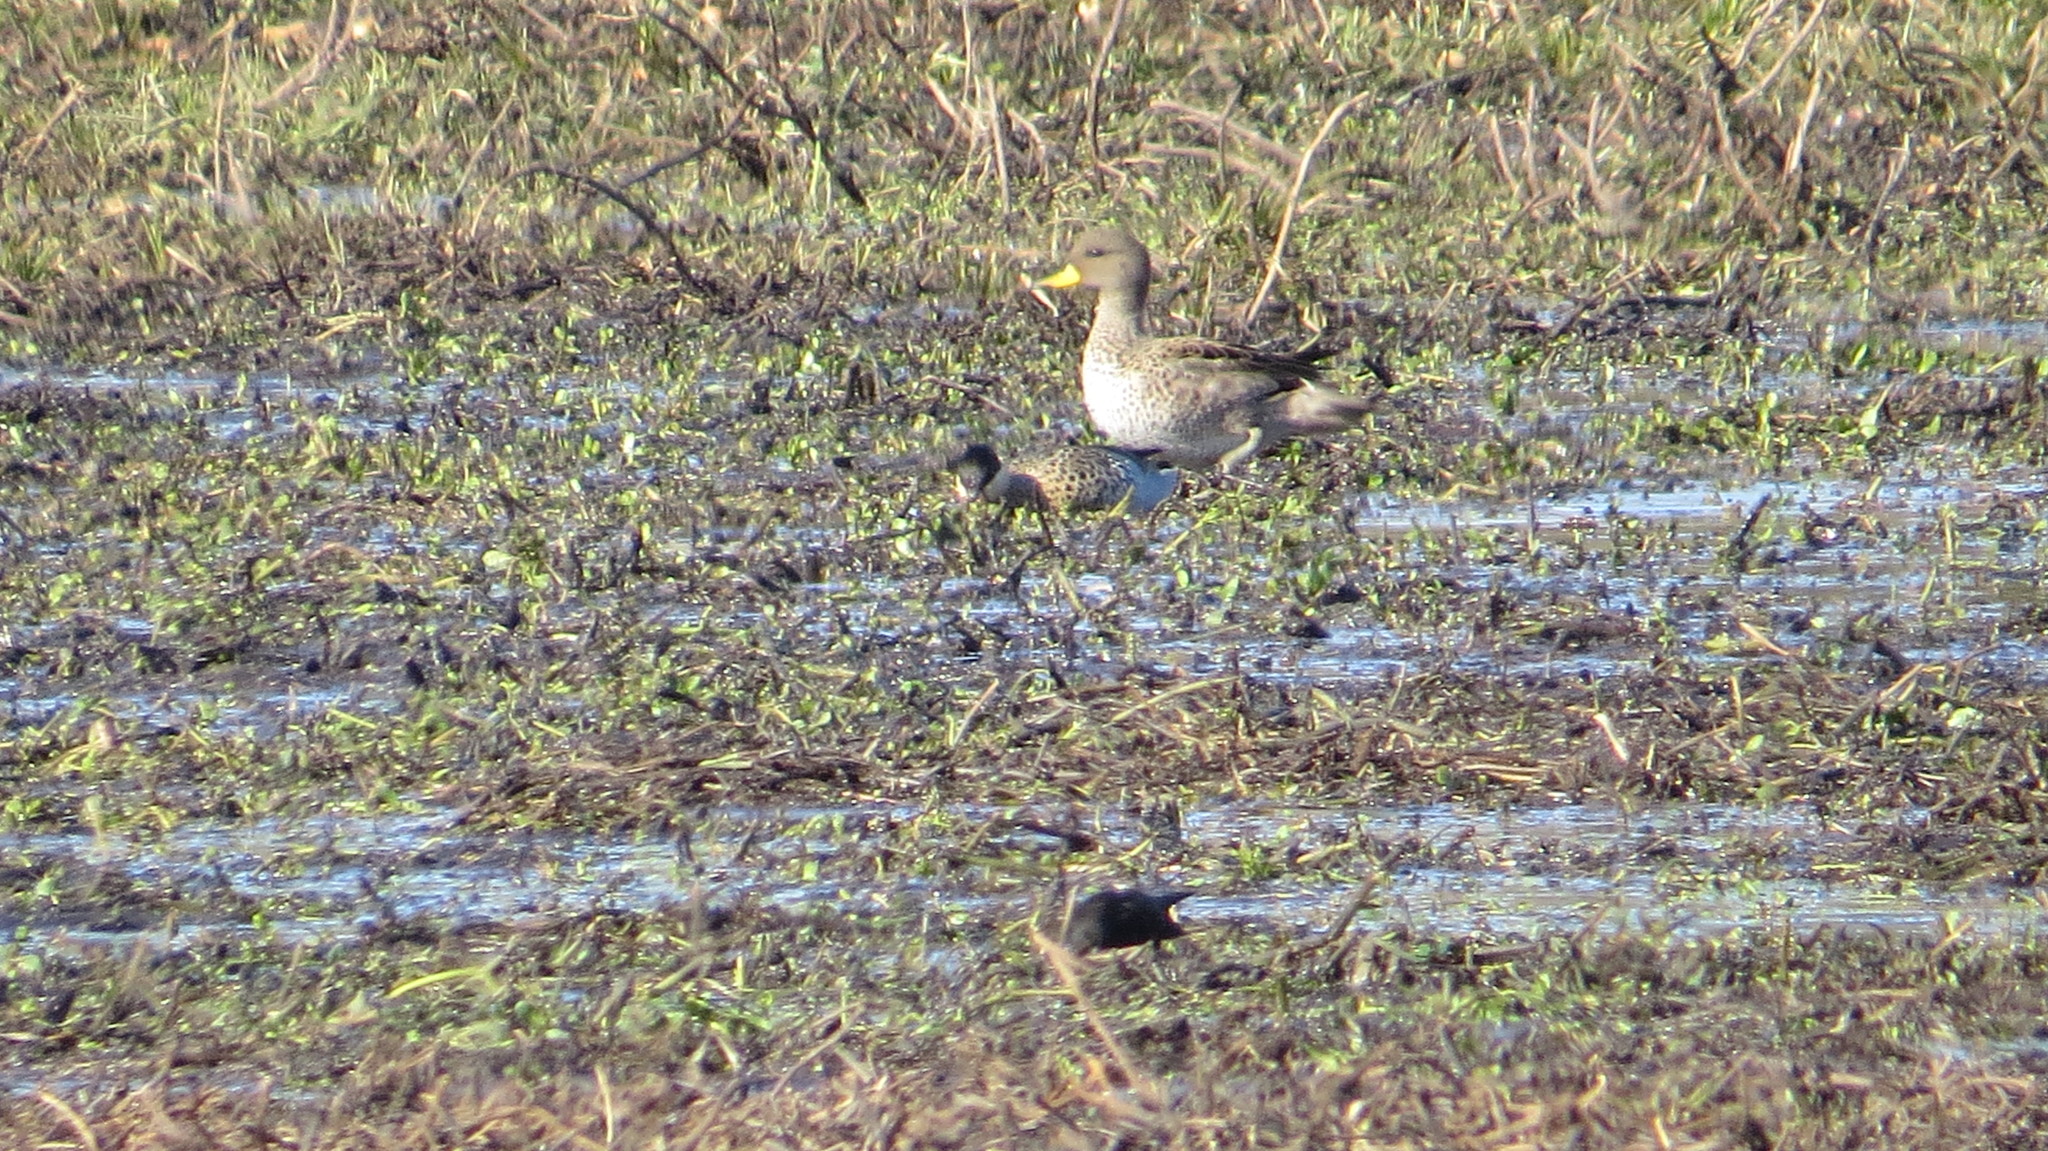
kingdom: Animalia
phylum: Chordata
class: Aves
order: Anseriformes
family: Anatidae
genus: Anas
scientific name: Anas flavirostris
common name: Yellow-billed teal
